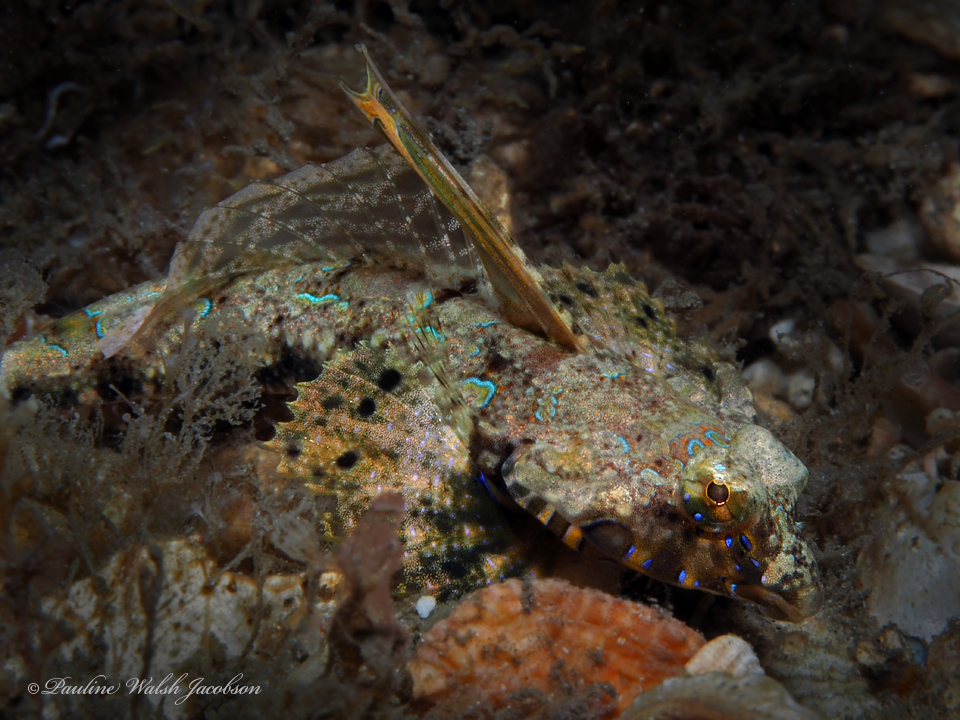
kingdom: Animalia
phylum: Chordata
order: Perciformes
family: Callionymidae
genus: Callionymus
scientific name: Callionymus bairdi
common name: Lancer dragonet
